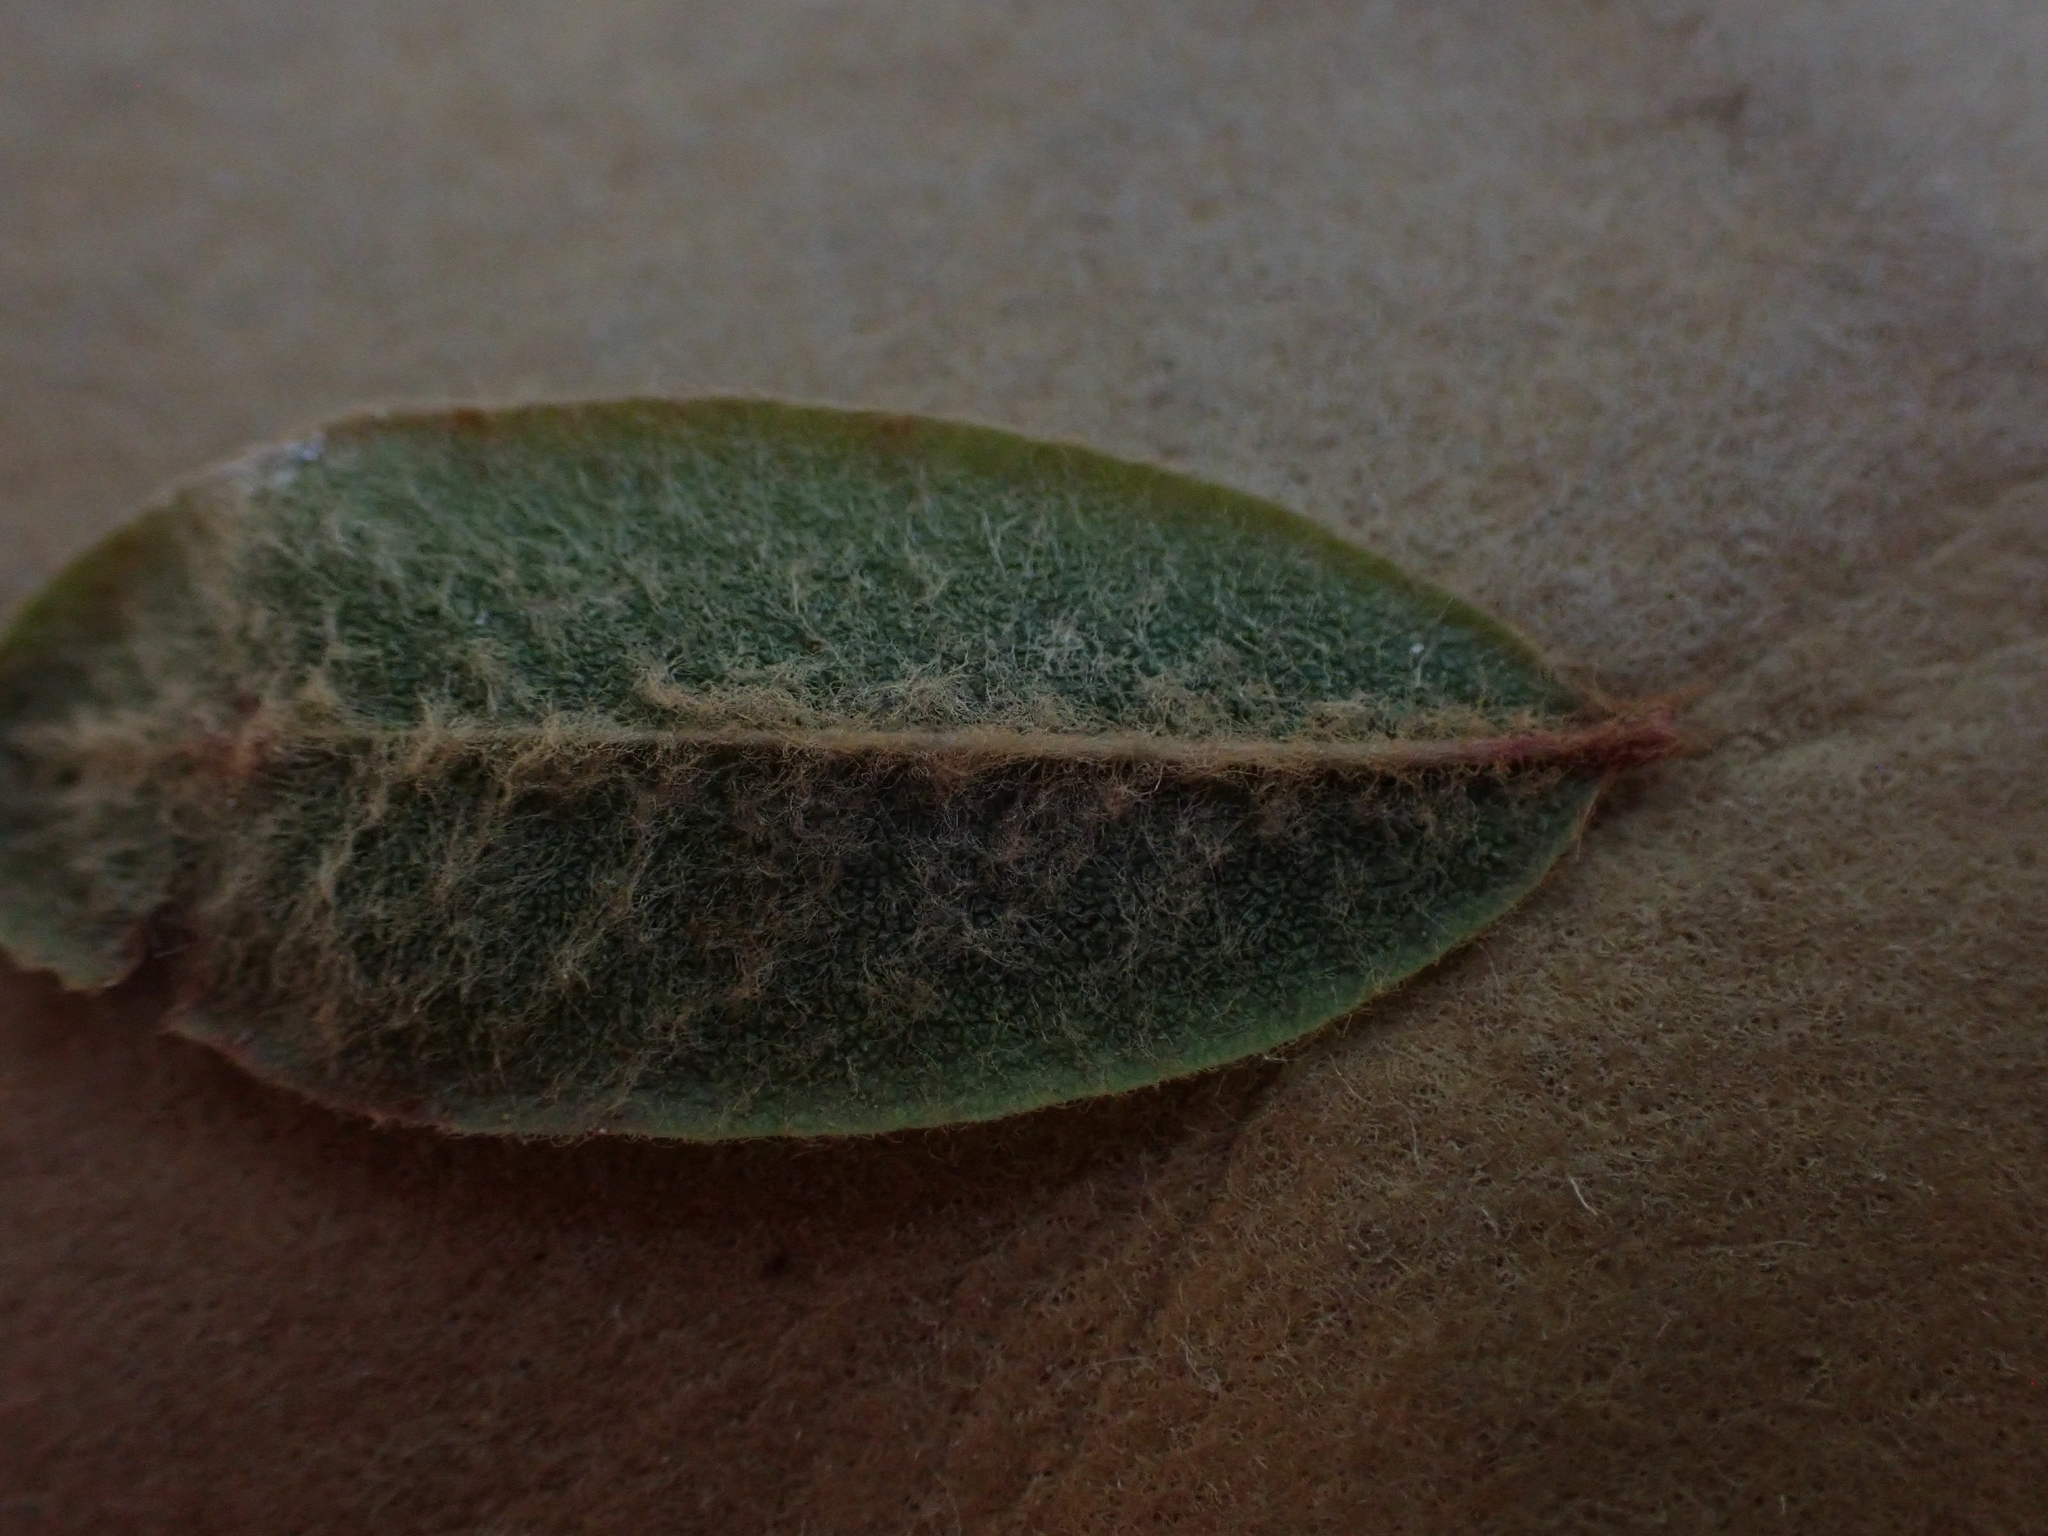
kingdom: Plantae
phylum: Tracheophyta
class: Magnoliopsida
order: Ericales
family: Ericaceae
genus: Rhododendron
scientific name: Rhododendron groenlandicum
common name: Bog labrador tea
